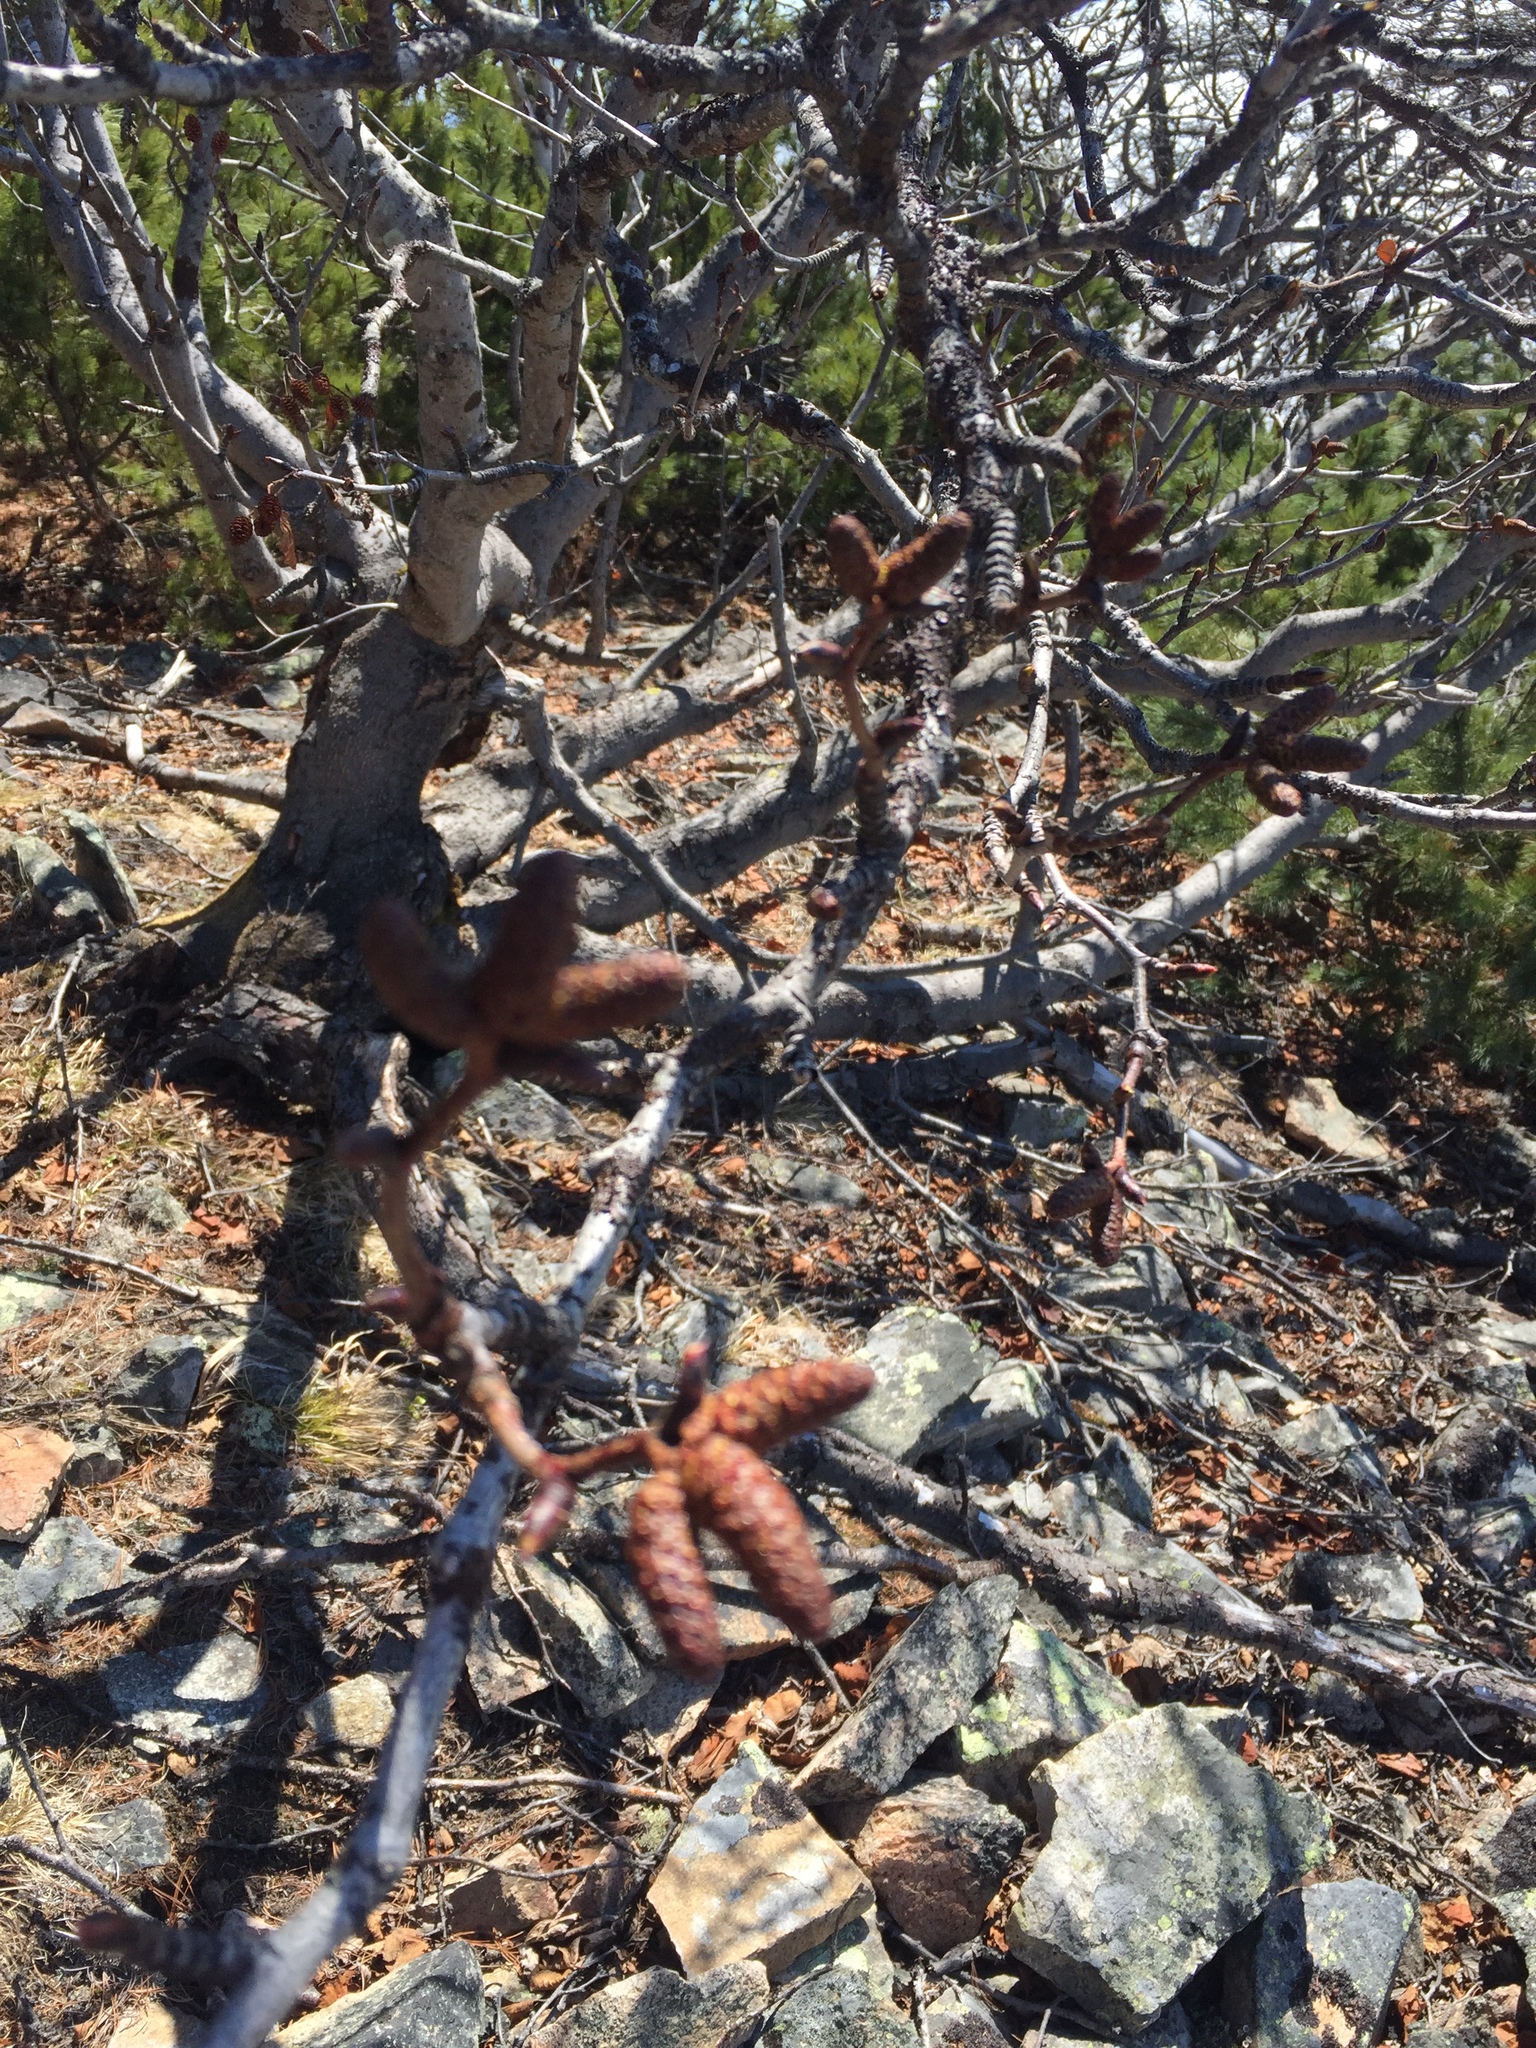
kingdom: Plantae
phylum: Tracheophyta
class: Magnoliopsida
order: Fagales
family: Betulaceae
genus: Alnus
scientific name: Alnus alnobetula
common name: Green alder
